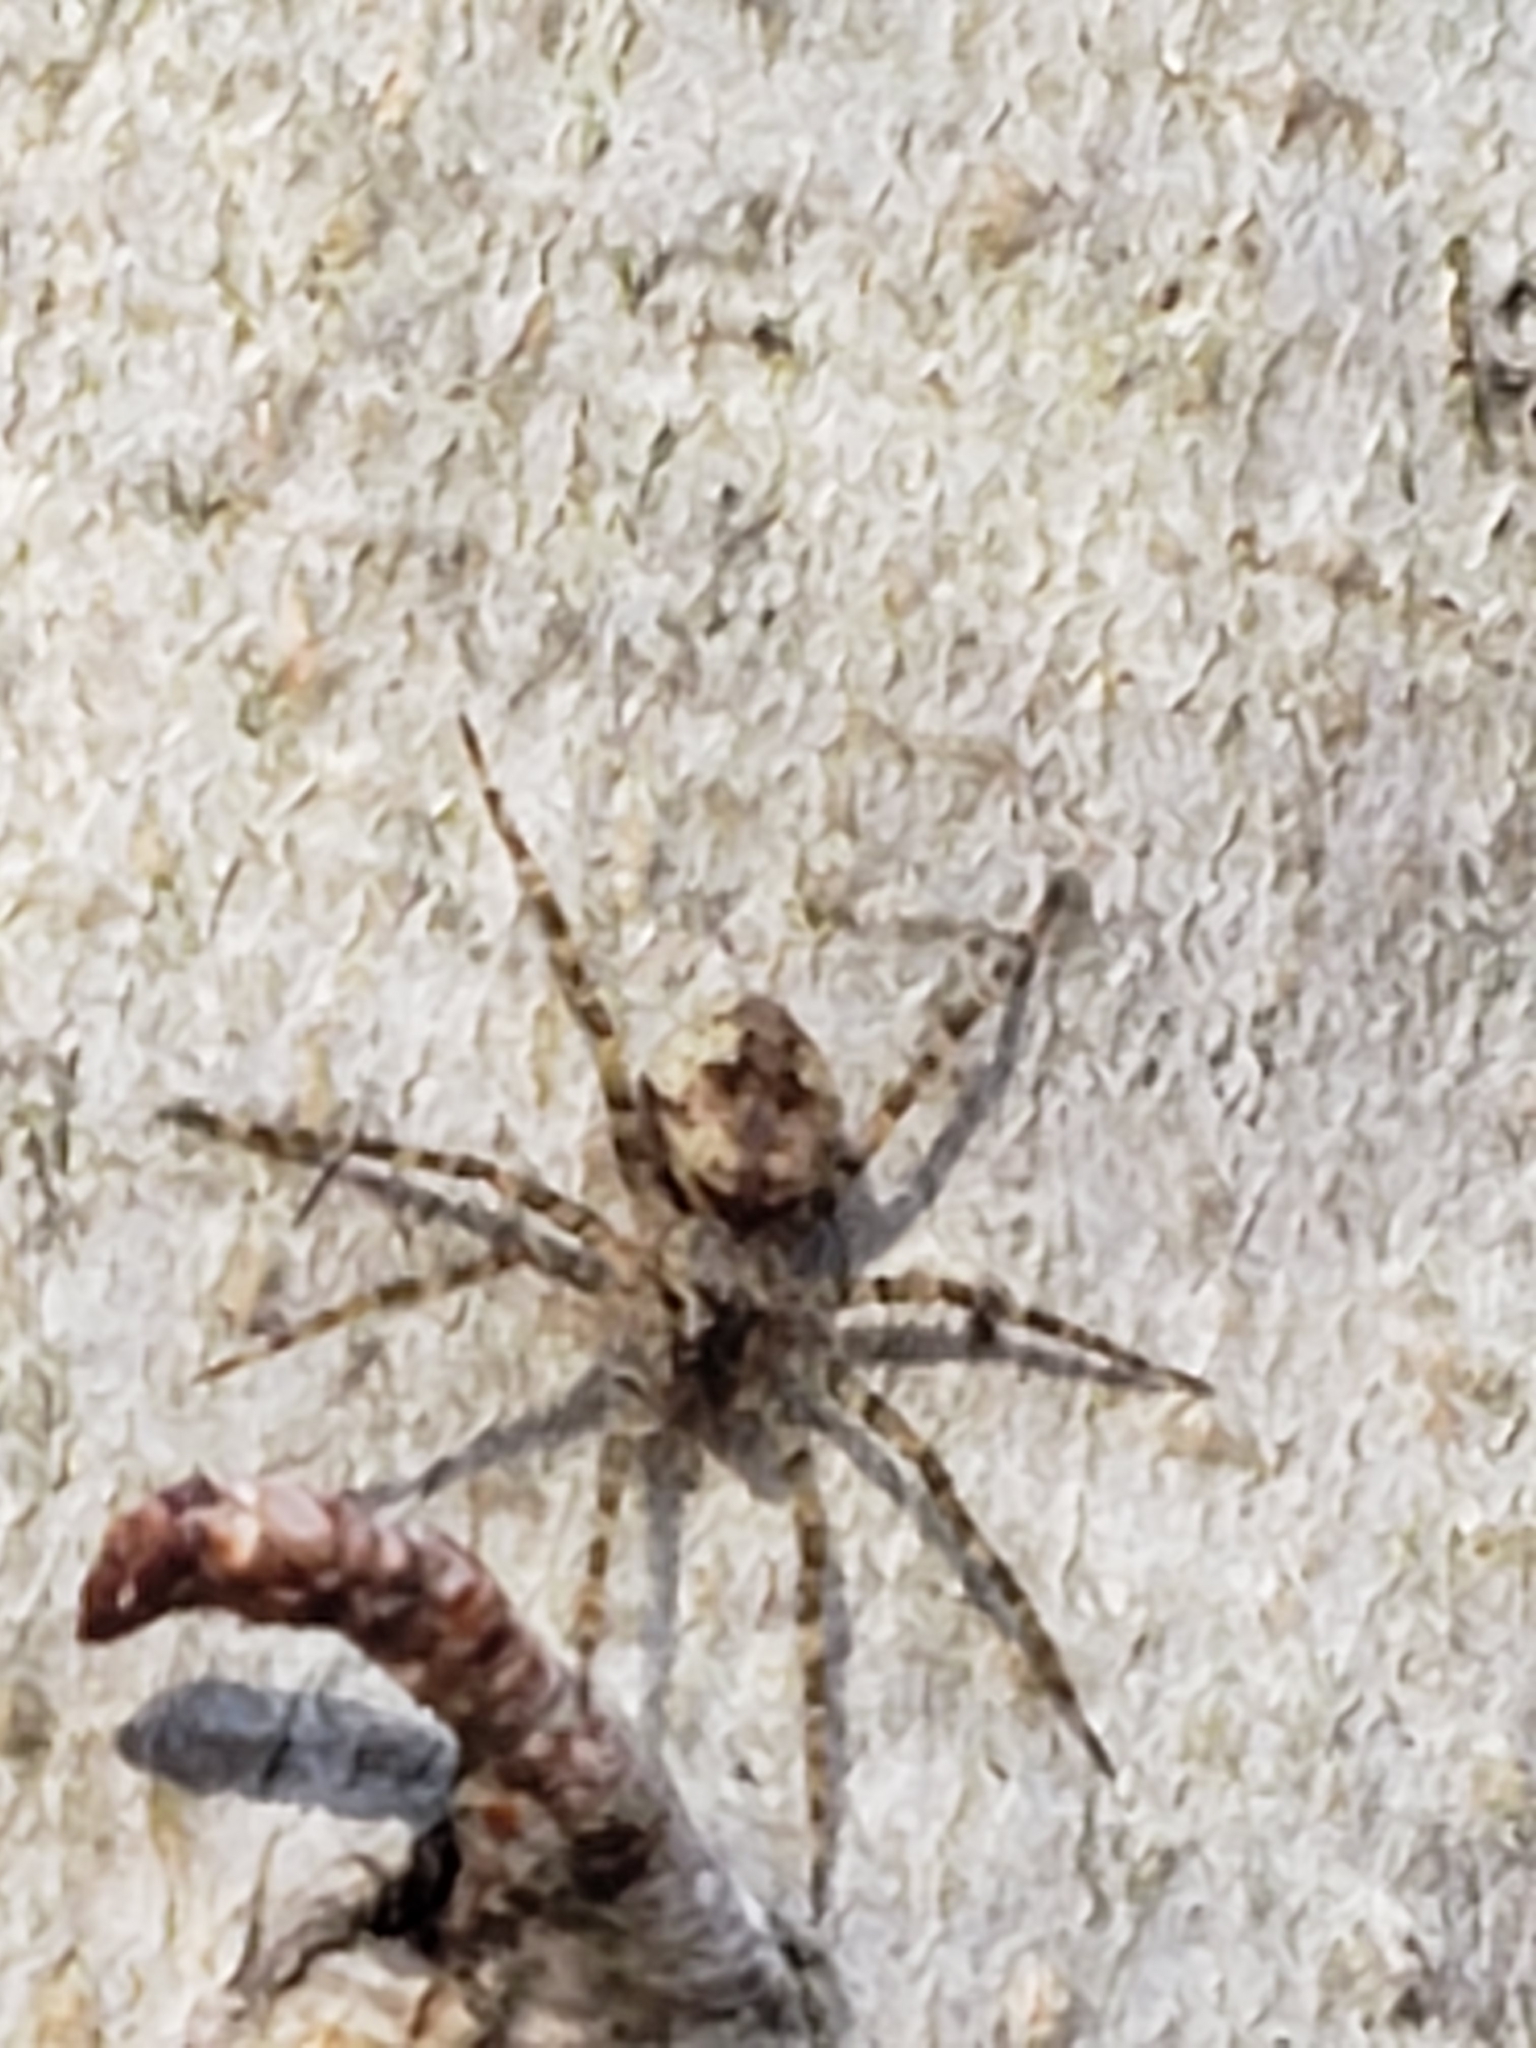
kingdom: Animalia
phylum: Arthropoda
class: Arachnida
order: Araneae
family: Pisauridae
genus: Dolomedes
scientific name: Dolomedes albineus
